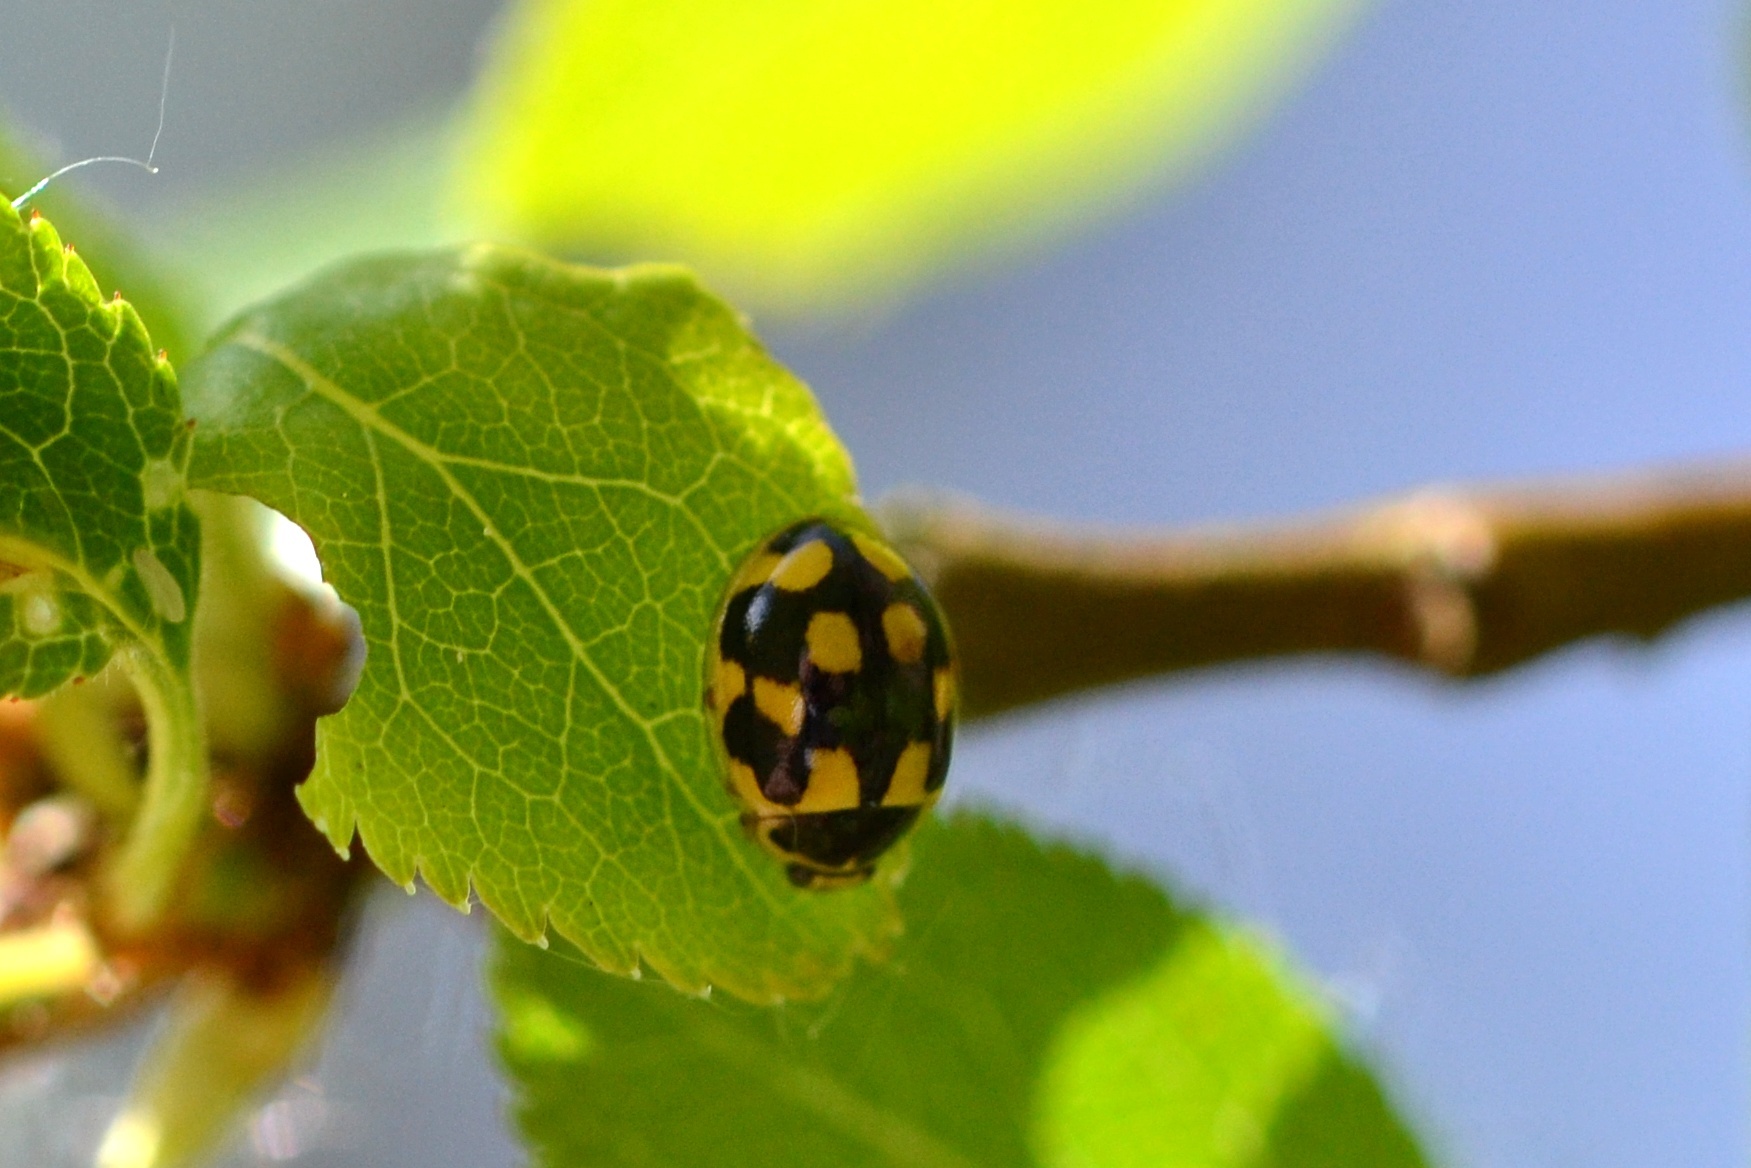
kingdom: Animalia
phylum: Arthropoda
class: Insecta
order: Coleoptera
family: Coccinellidae
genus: Propylaea
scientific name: Propylaea quatuordecimpunctata
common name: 14-spotted ladybird beetle
